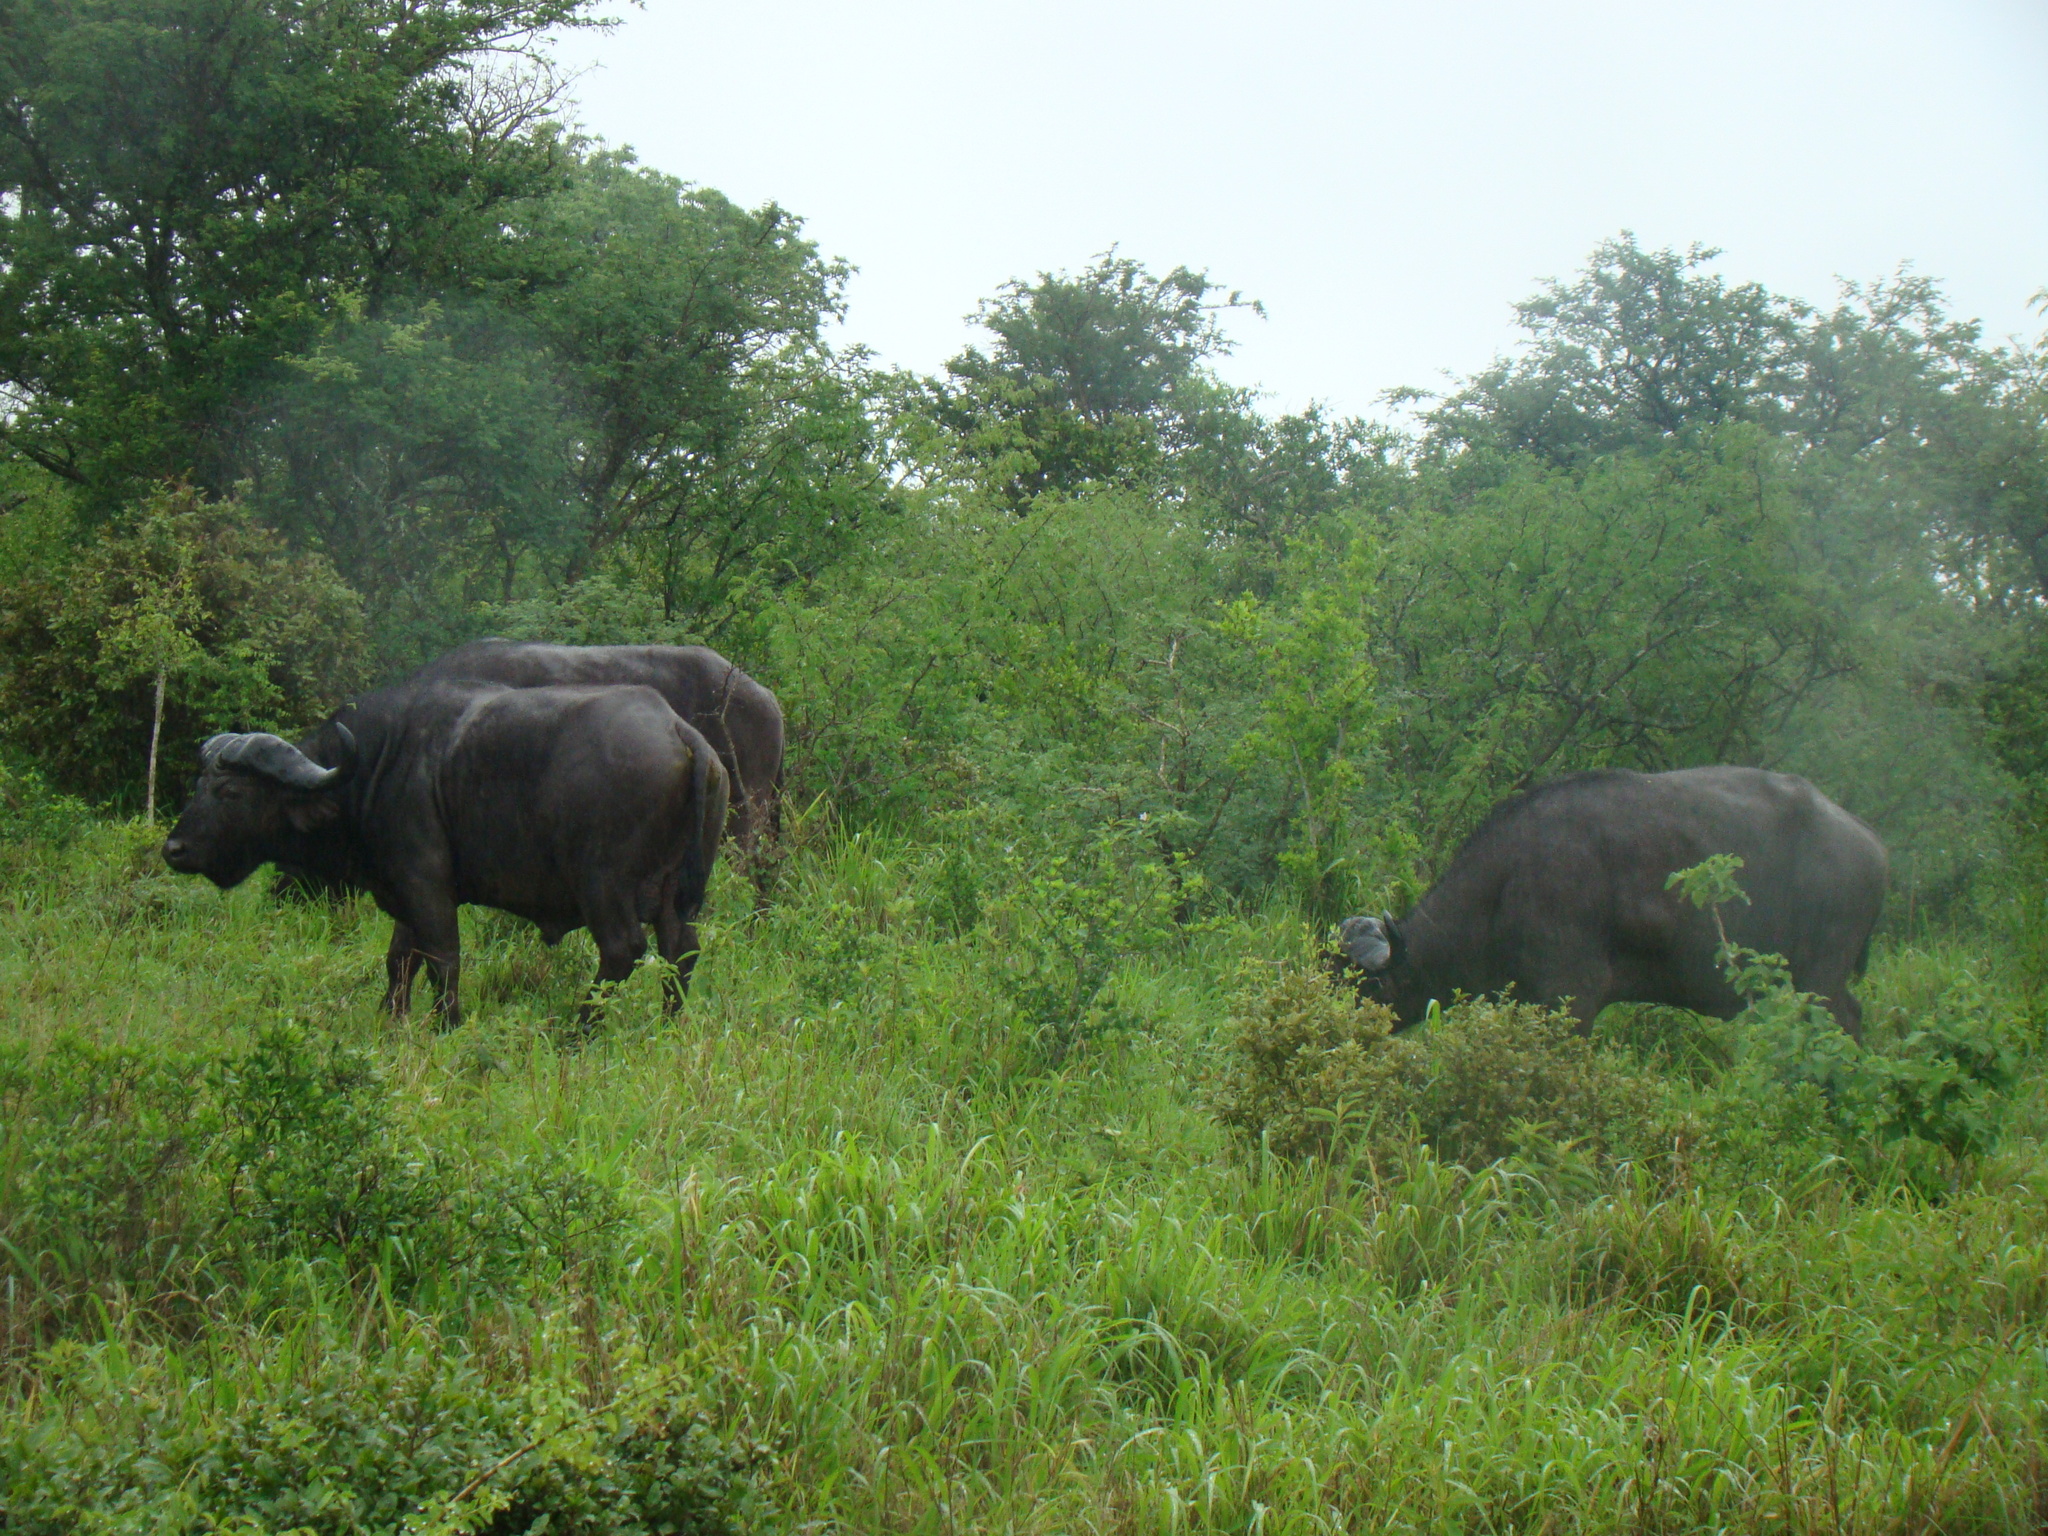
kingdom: Animalia
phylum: Chordata
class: Mammalia
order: Artiodactyla
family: Bovidae
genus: Syncerus
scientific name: Syncerus caffer
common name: African buffalo
